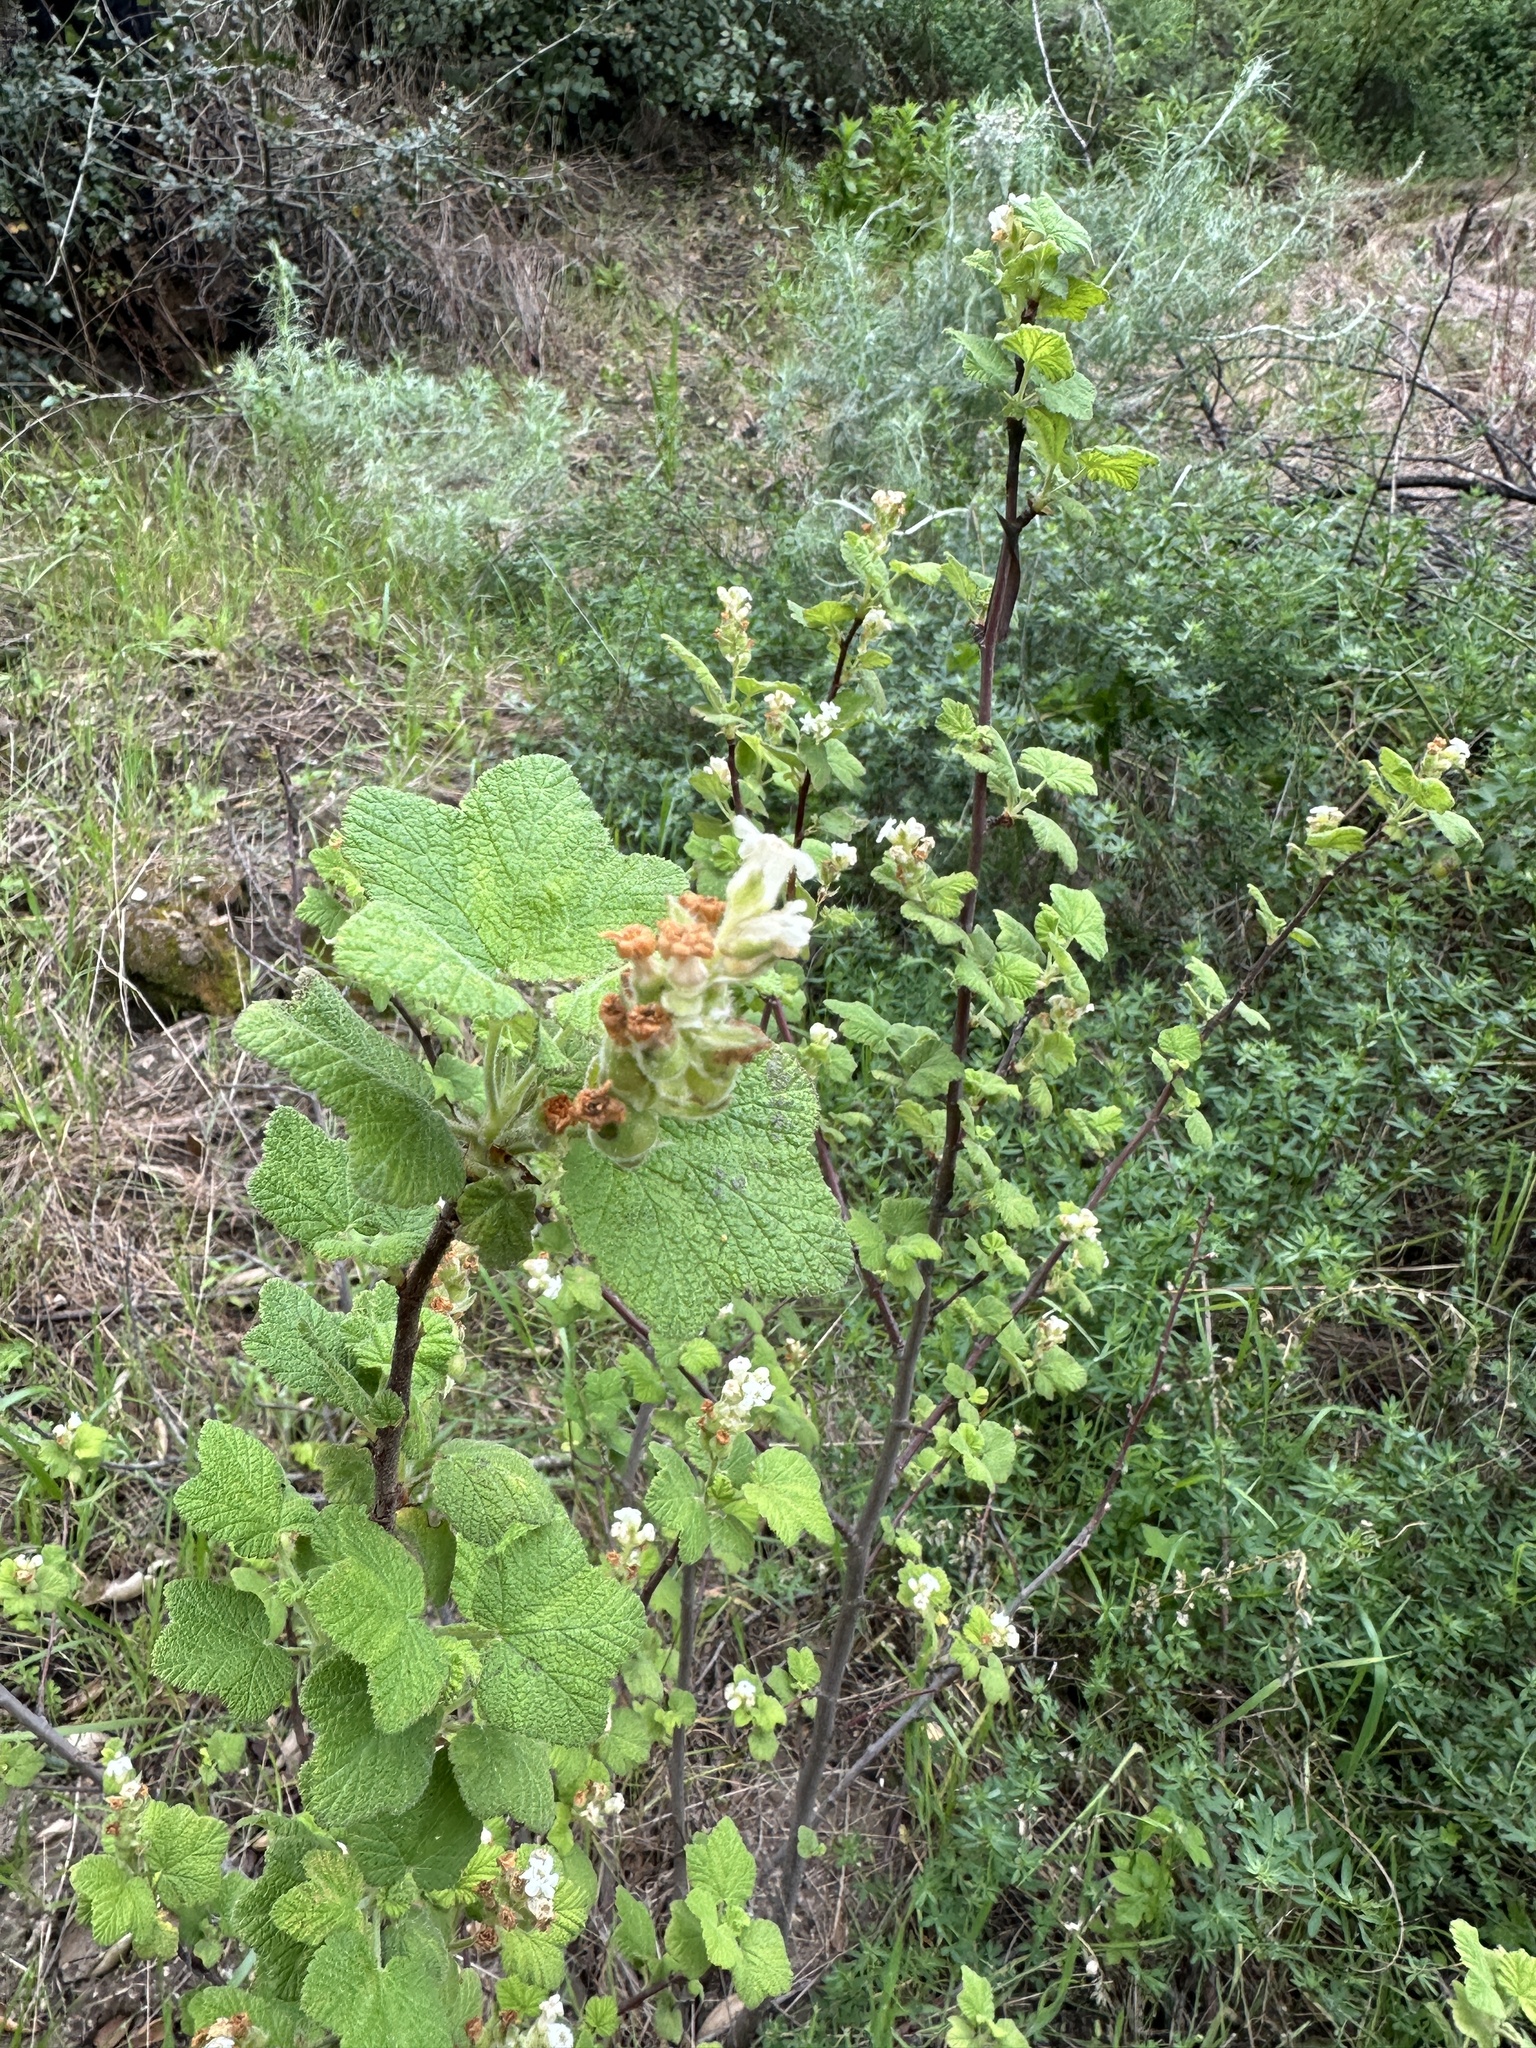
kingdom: Plantae
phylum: Tracheophyta
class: Magnoliopsida
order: Saxifragales
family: Grossulariaceae
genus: Ribes
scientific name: Ribes indecorum
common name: White-flower currant
